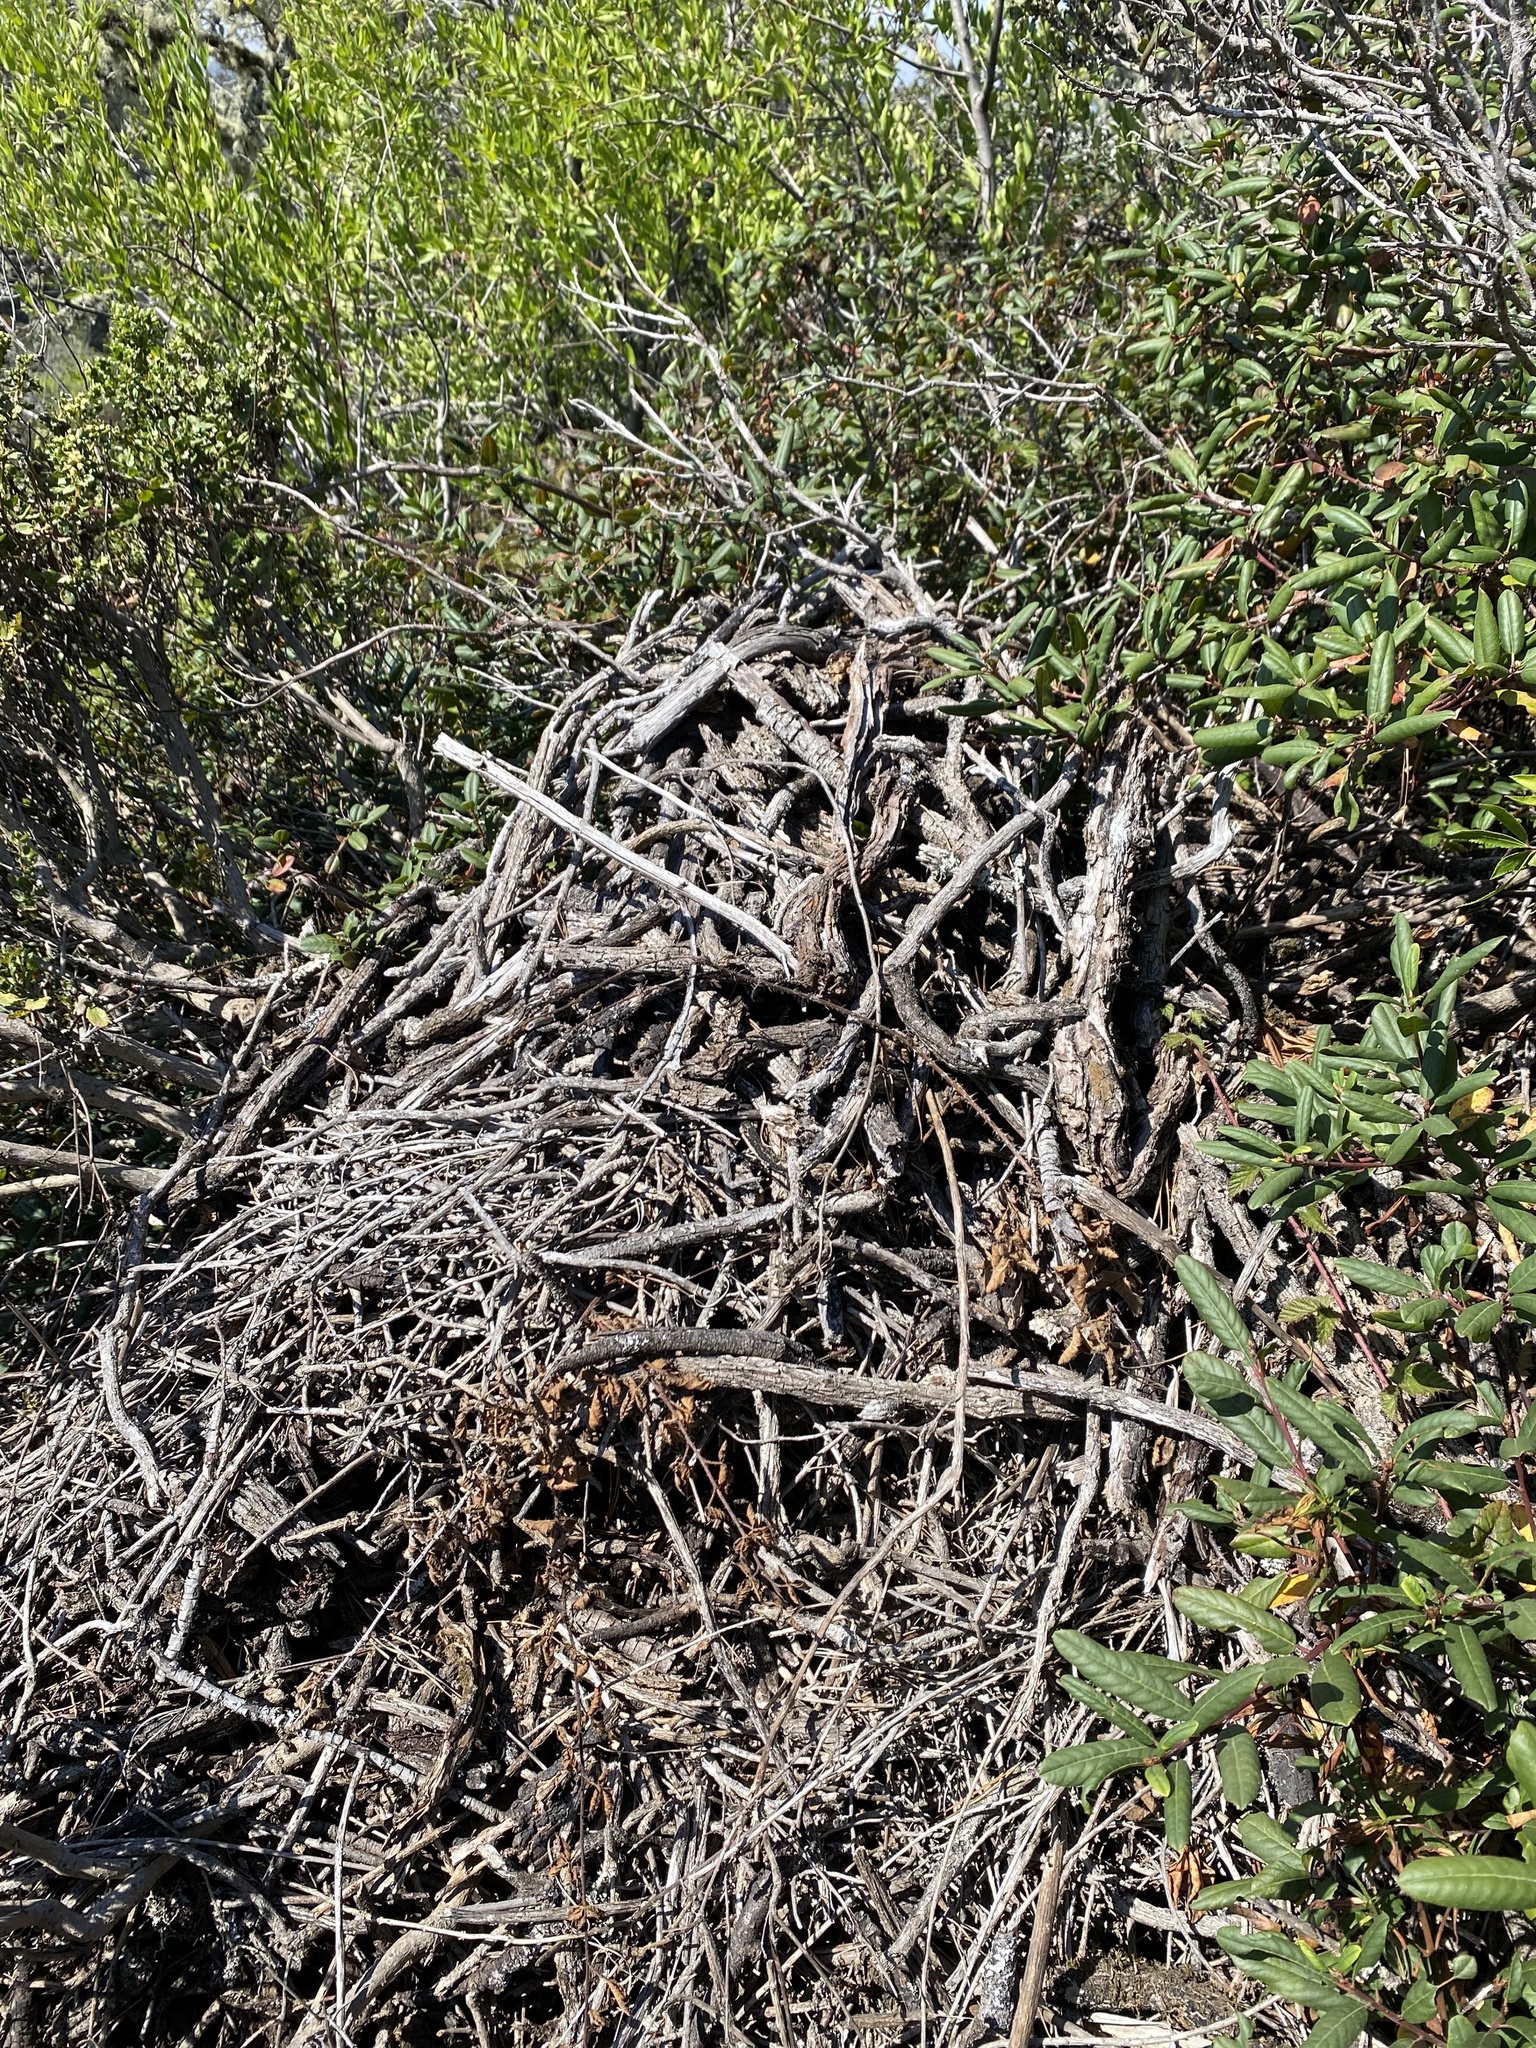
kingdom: Animalia
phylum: Chordata
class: Mammalia
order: Rodentia
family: Cricetidae
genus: Neotoma
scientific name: Neotoma fuscipes
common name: Dusky-footed woodrat
